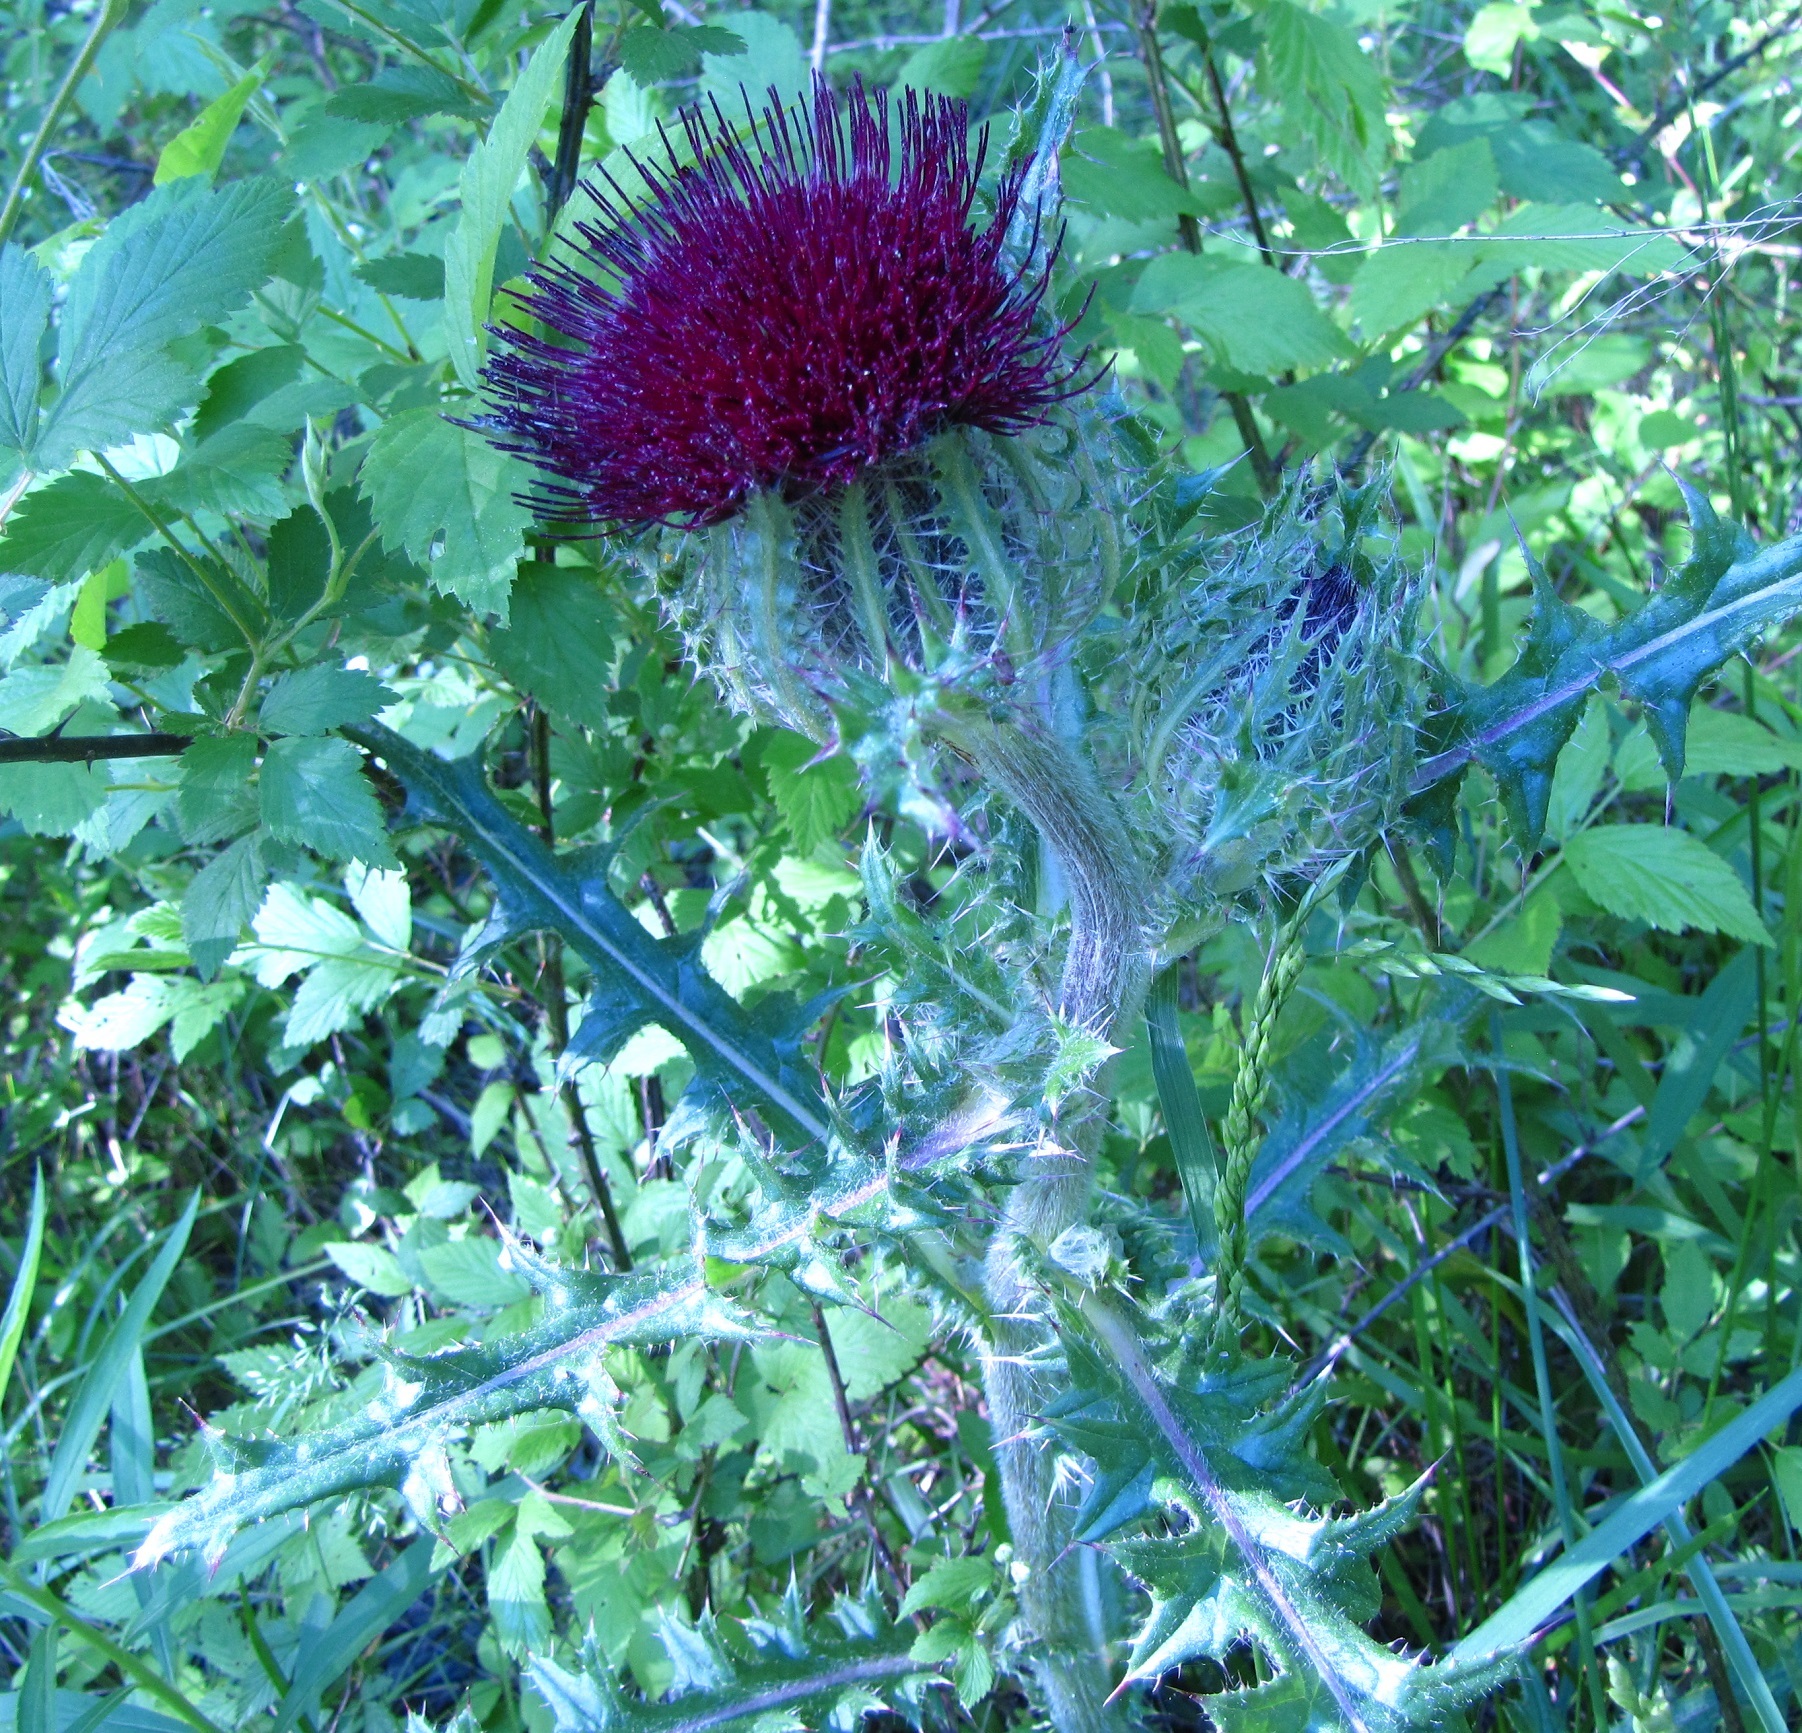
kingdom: Plantae
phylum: Tracheophyta
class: Magnoliopsida
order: Asterales
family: Asteraceae
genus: Cirsium
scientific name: Cirsium horridulum
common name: Bristly thistle
